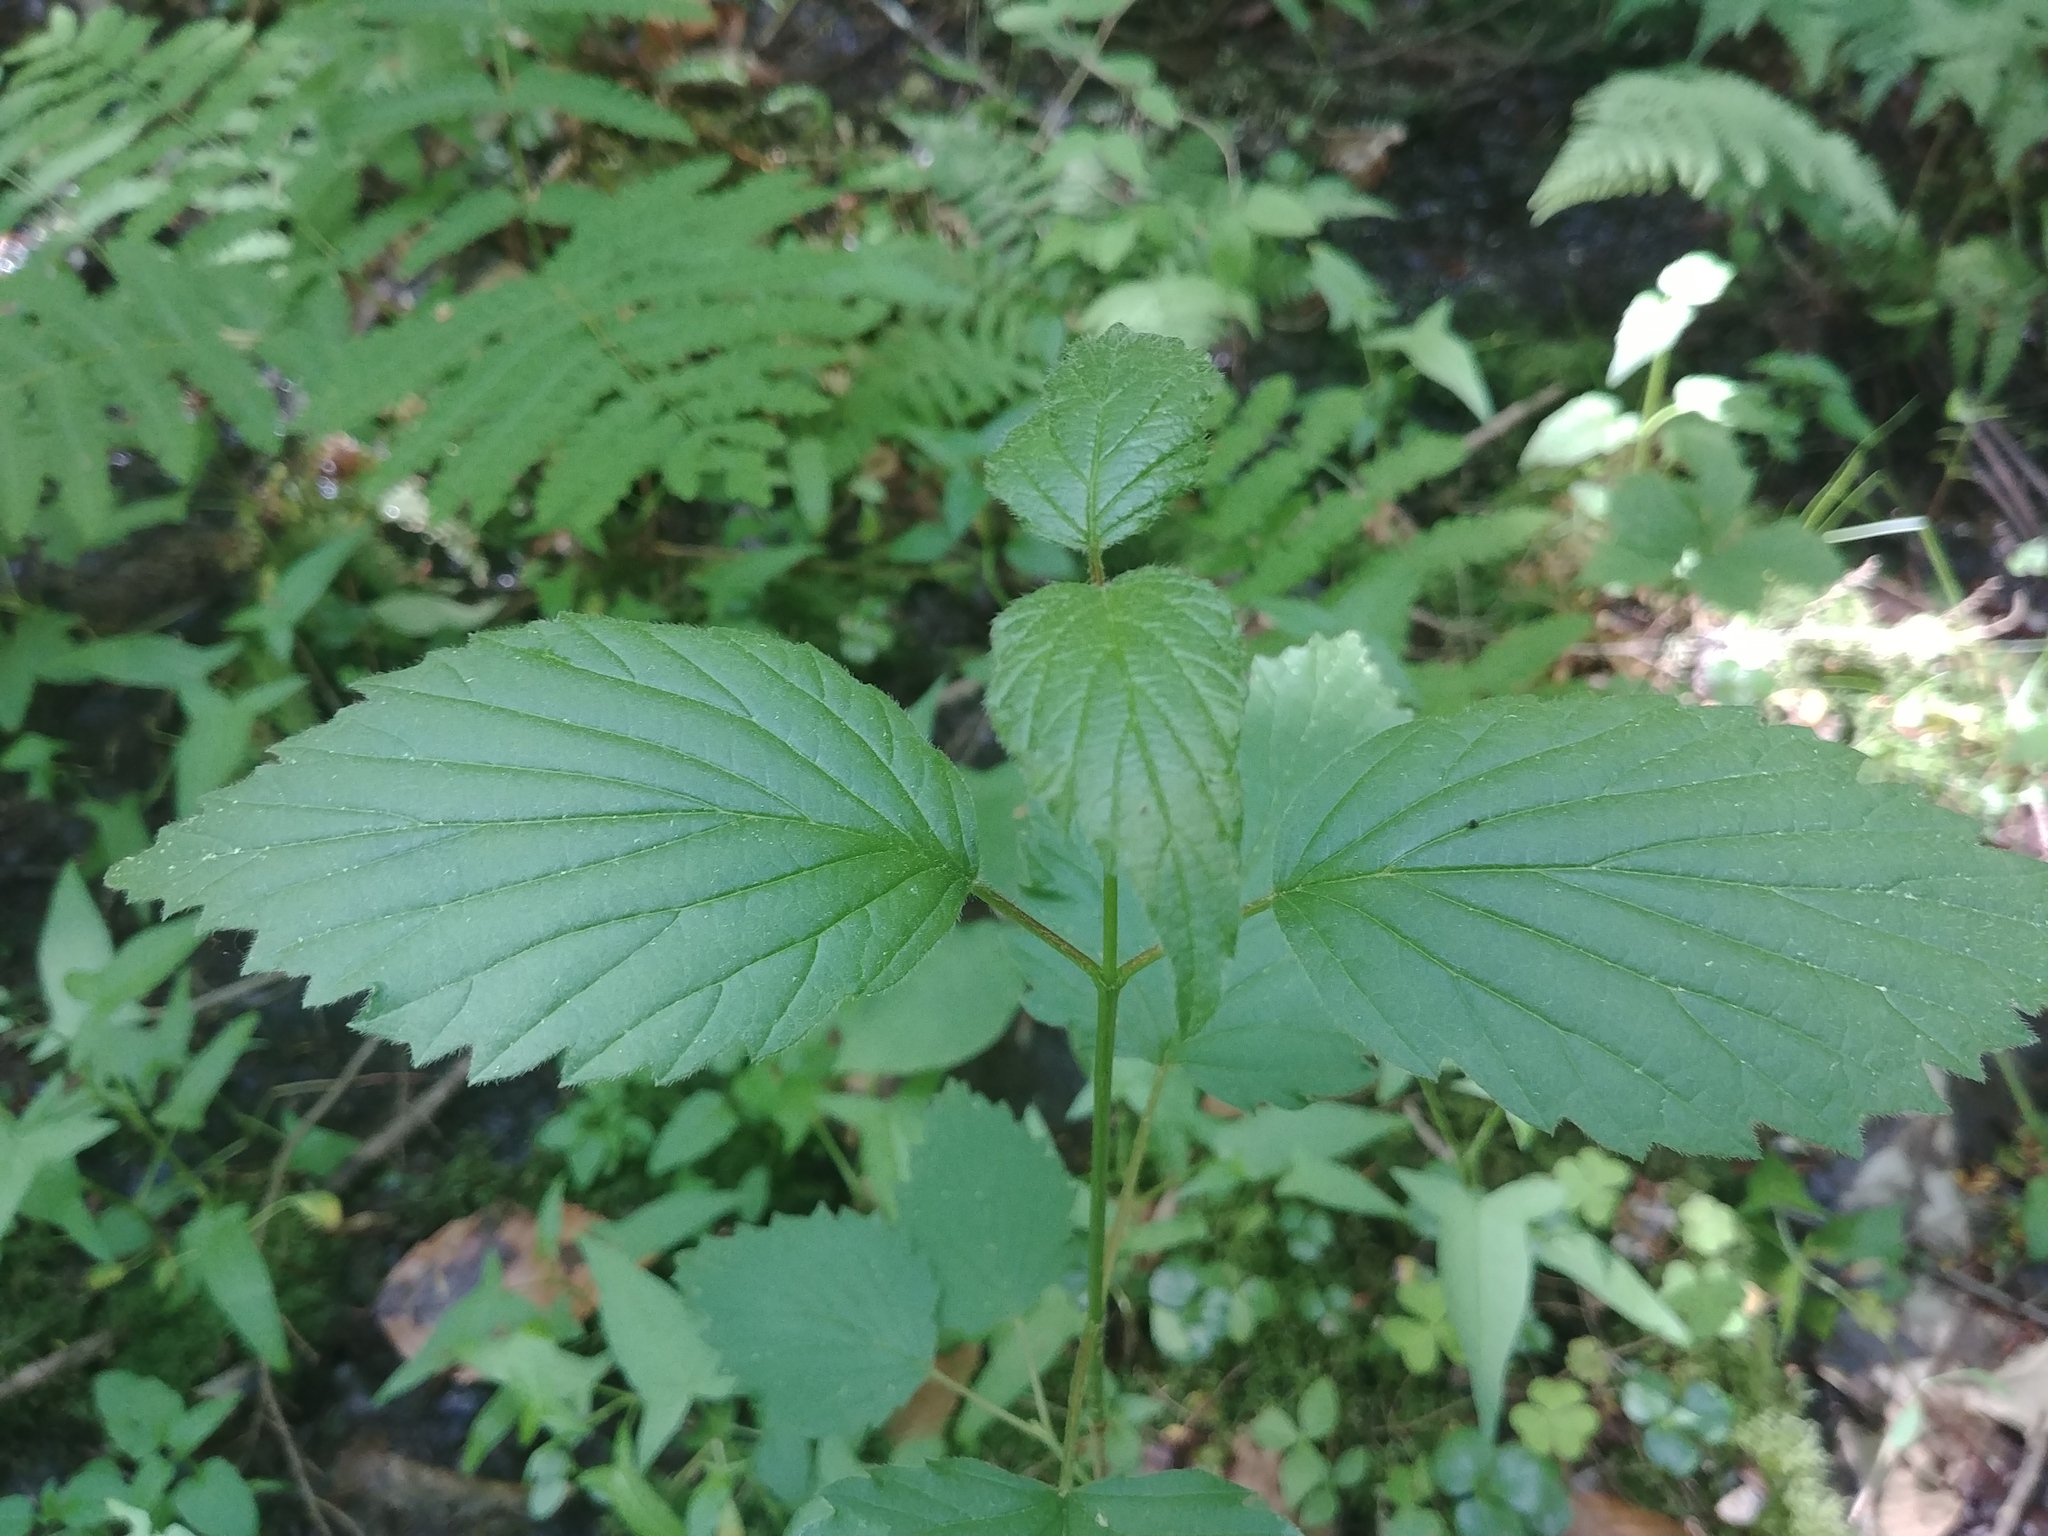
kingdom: Plantae
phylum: Tracheophyta
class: Magnoliopsida
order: Dipsacales
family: Viburnaceae
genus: Viburnum
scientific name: Viburnum dentatum
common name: Arrow-wood
